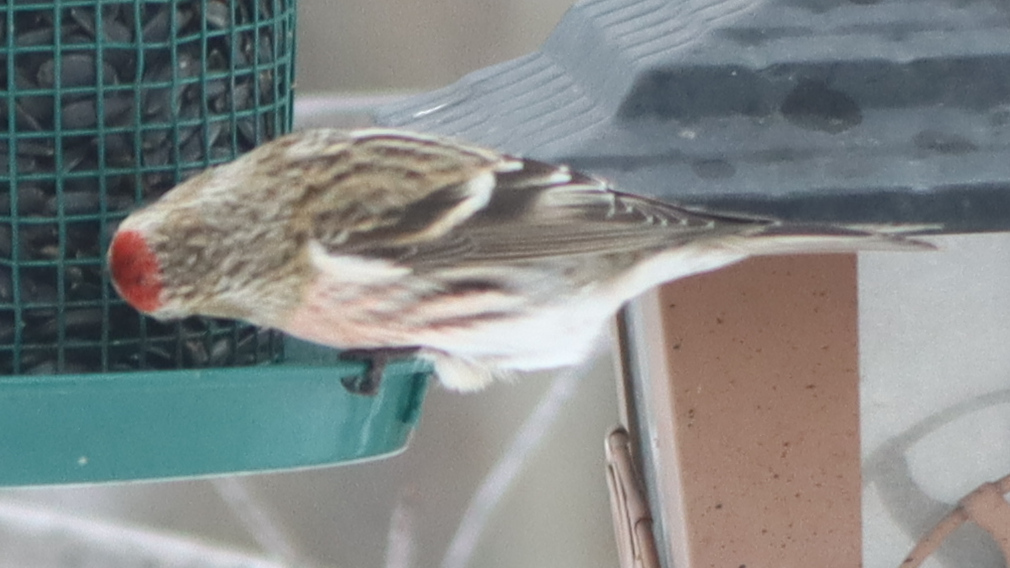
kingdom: Animalia
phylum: Chordata
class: Aves
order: Passeriformes
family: Fringillidae
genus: Acanthis
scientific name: Acanthis flammea
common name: Common redpoll
